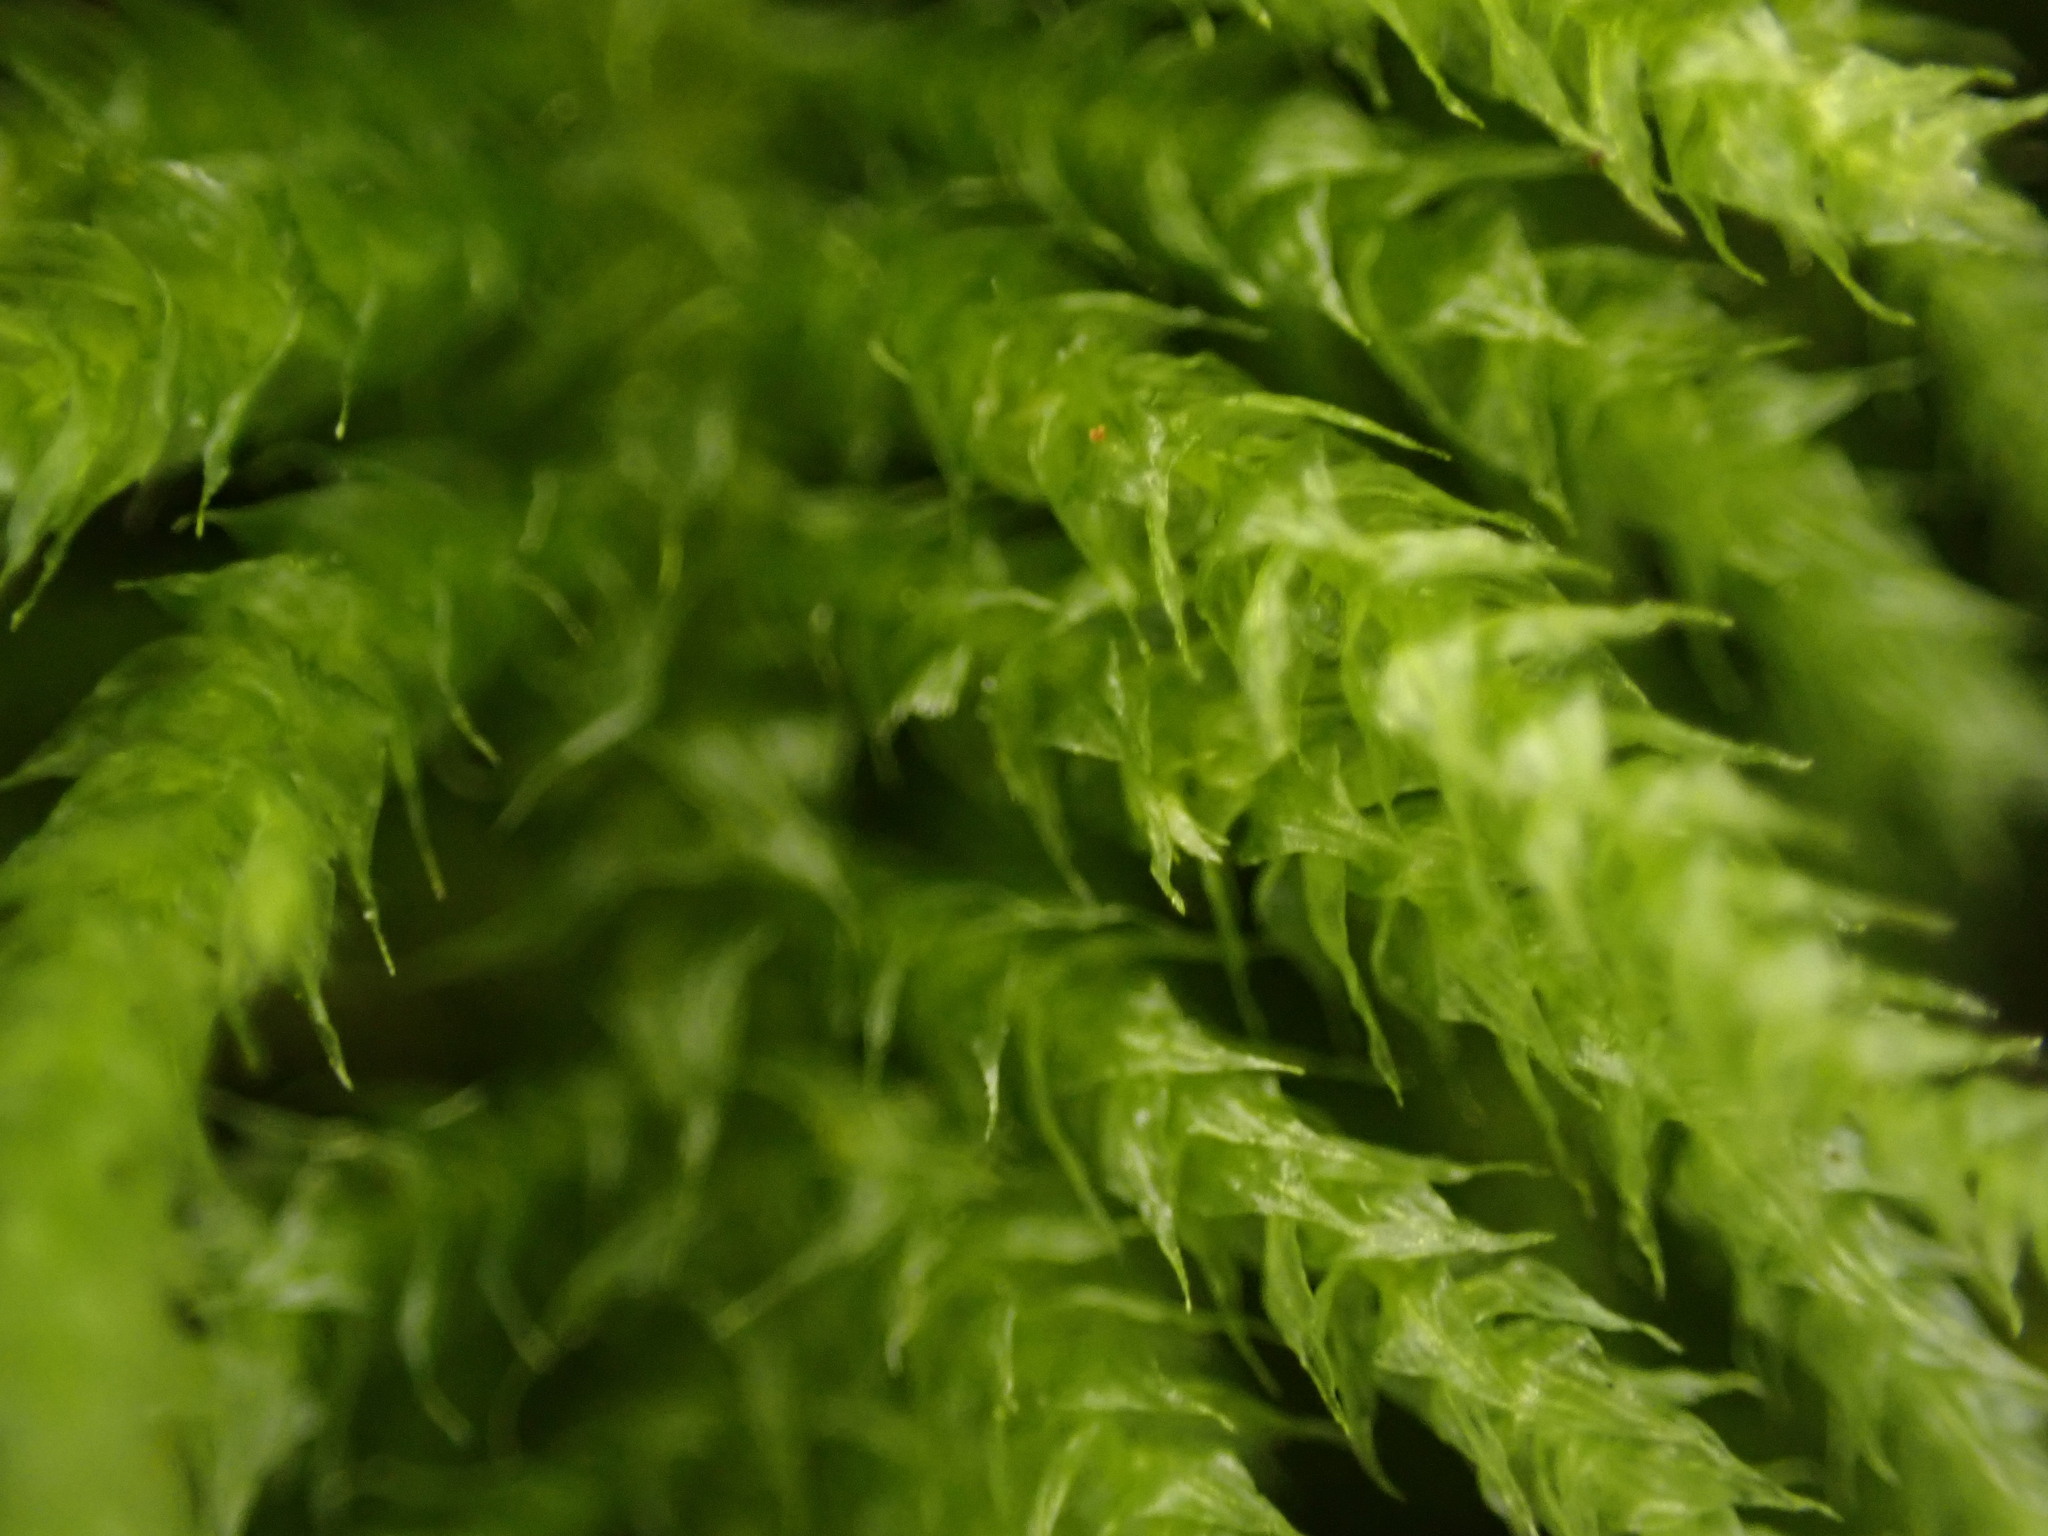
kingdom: Plantae
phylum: Bryophyta
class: Bryopsida
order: Hypnales
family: Brachytheciaceae
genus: Kindbergia
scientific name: Kindbergia oregana
